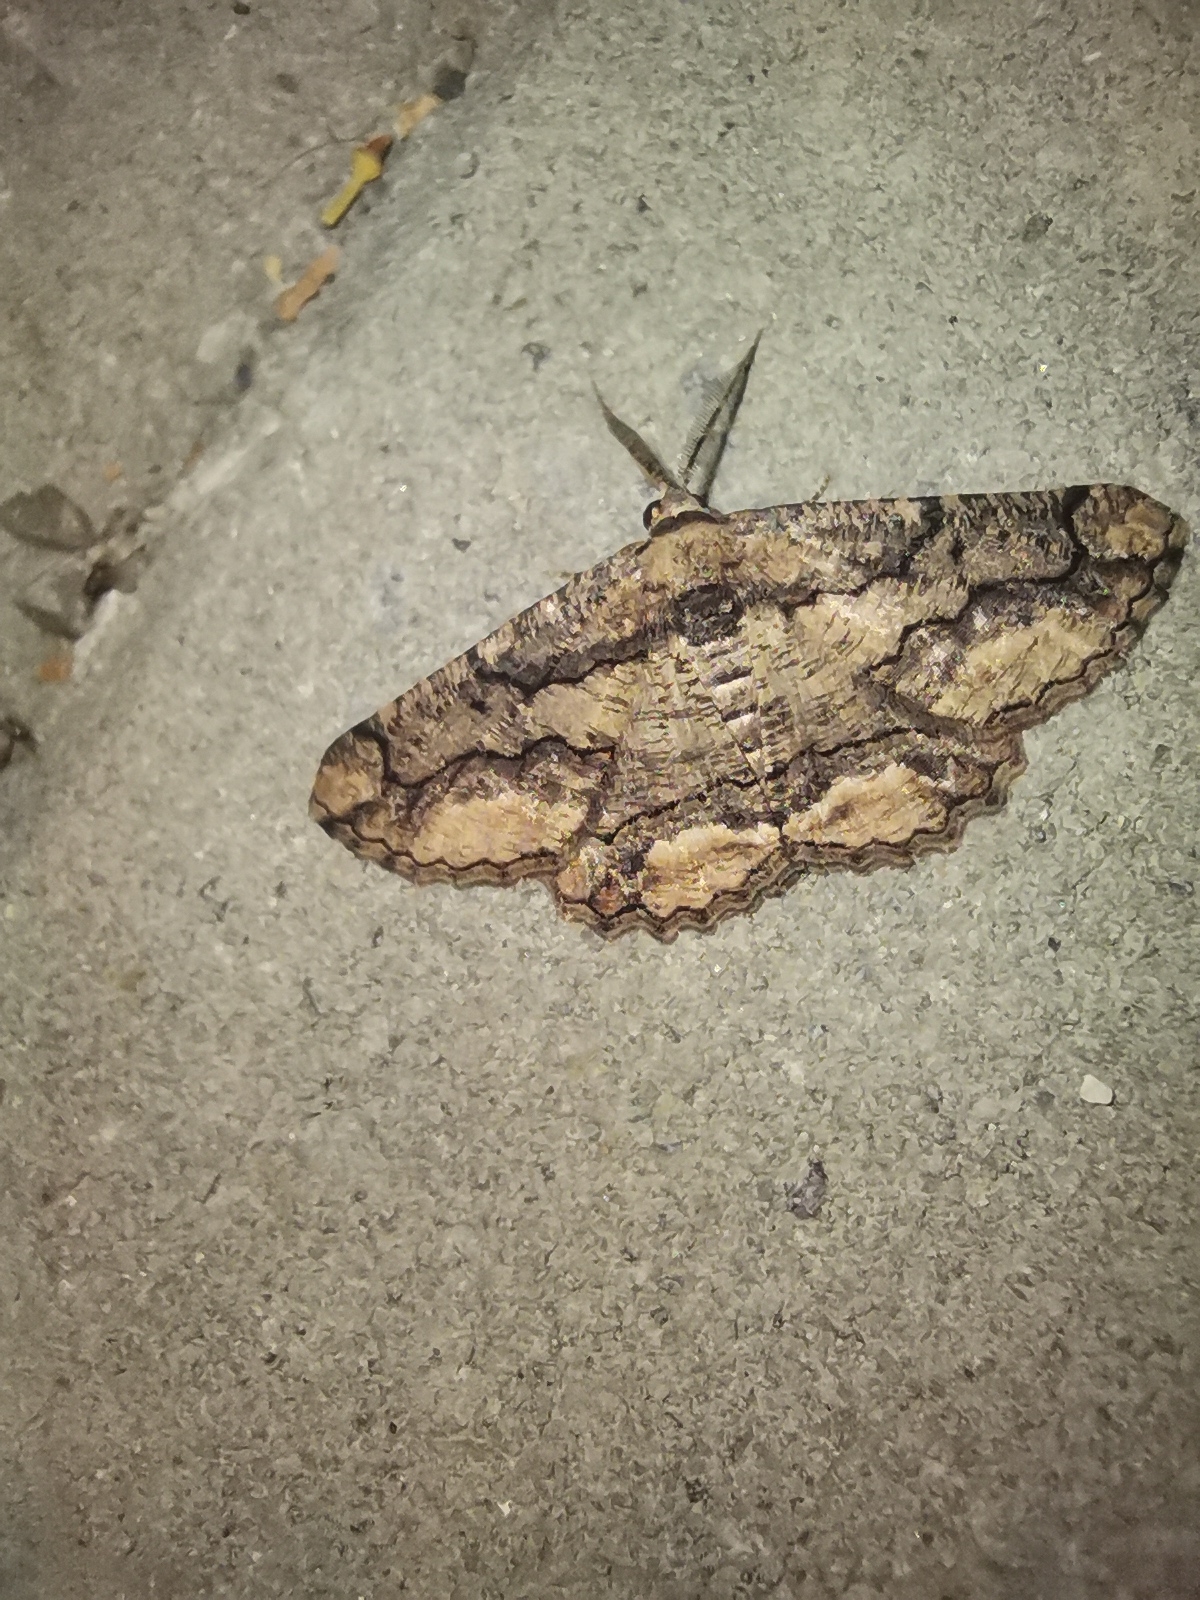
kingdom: Animalia
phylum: Arthropoda
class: Insecta
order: Lepidoptera
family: Geometridae
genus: Menophra
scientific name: Menophra japygiaria
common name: Brassy waved umber
